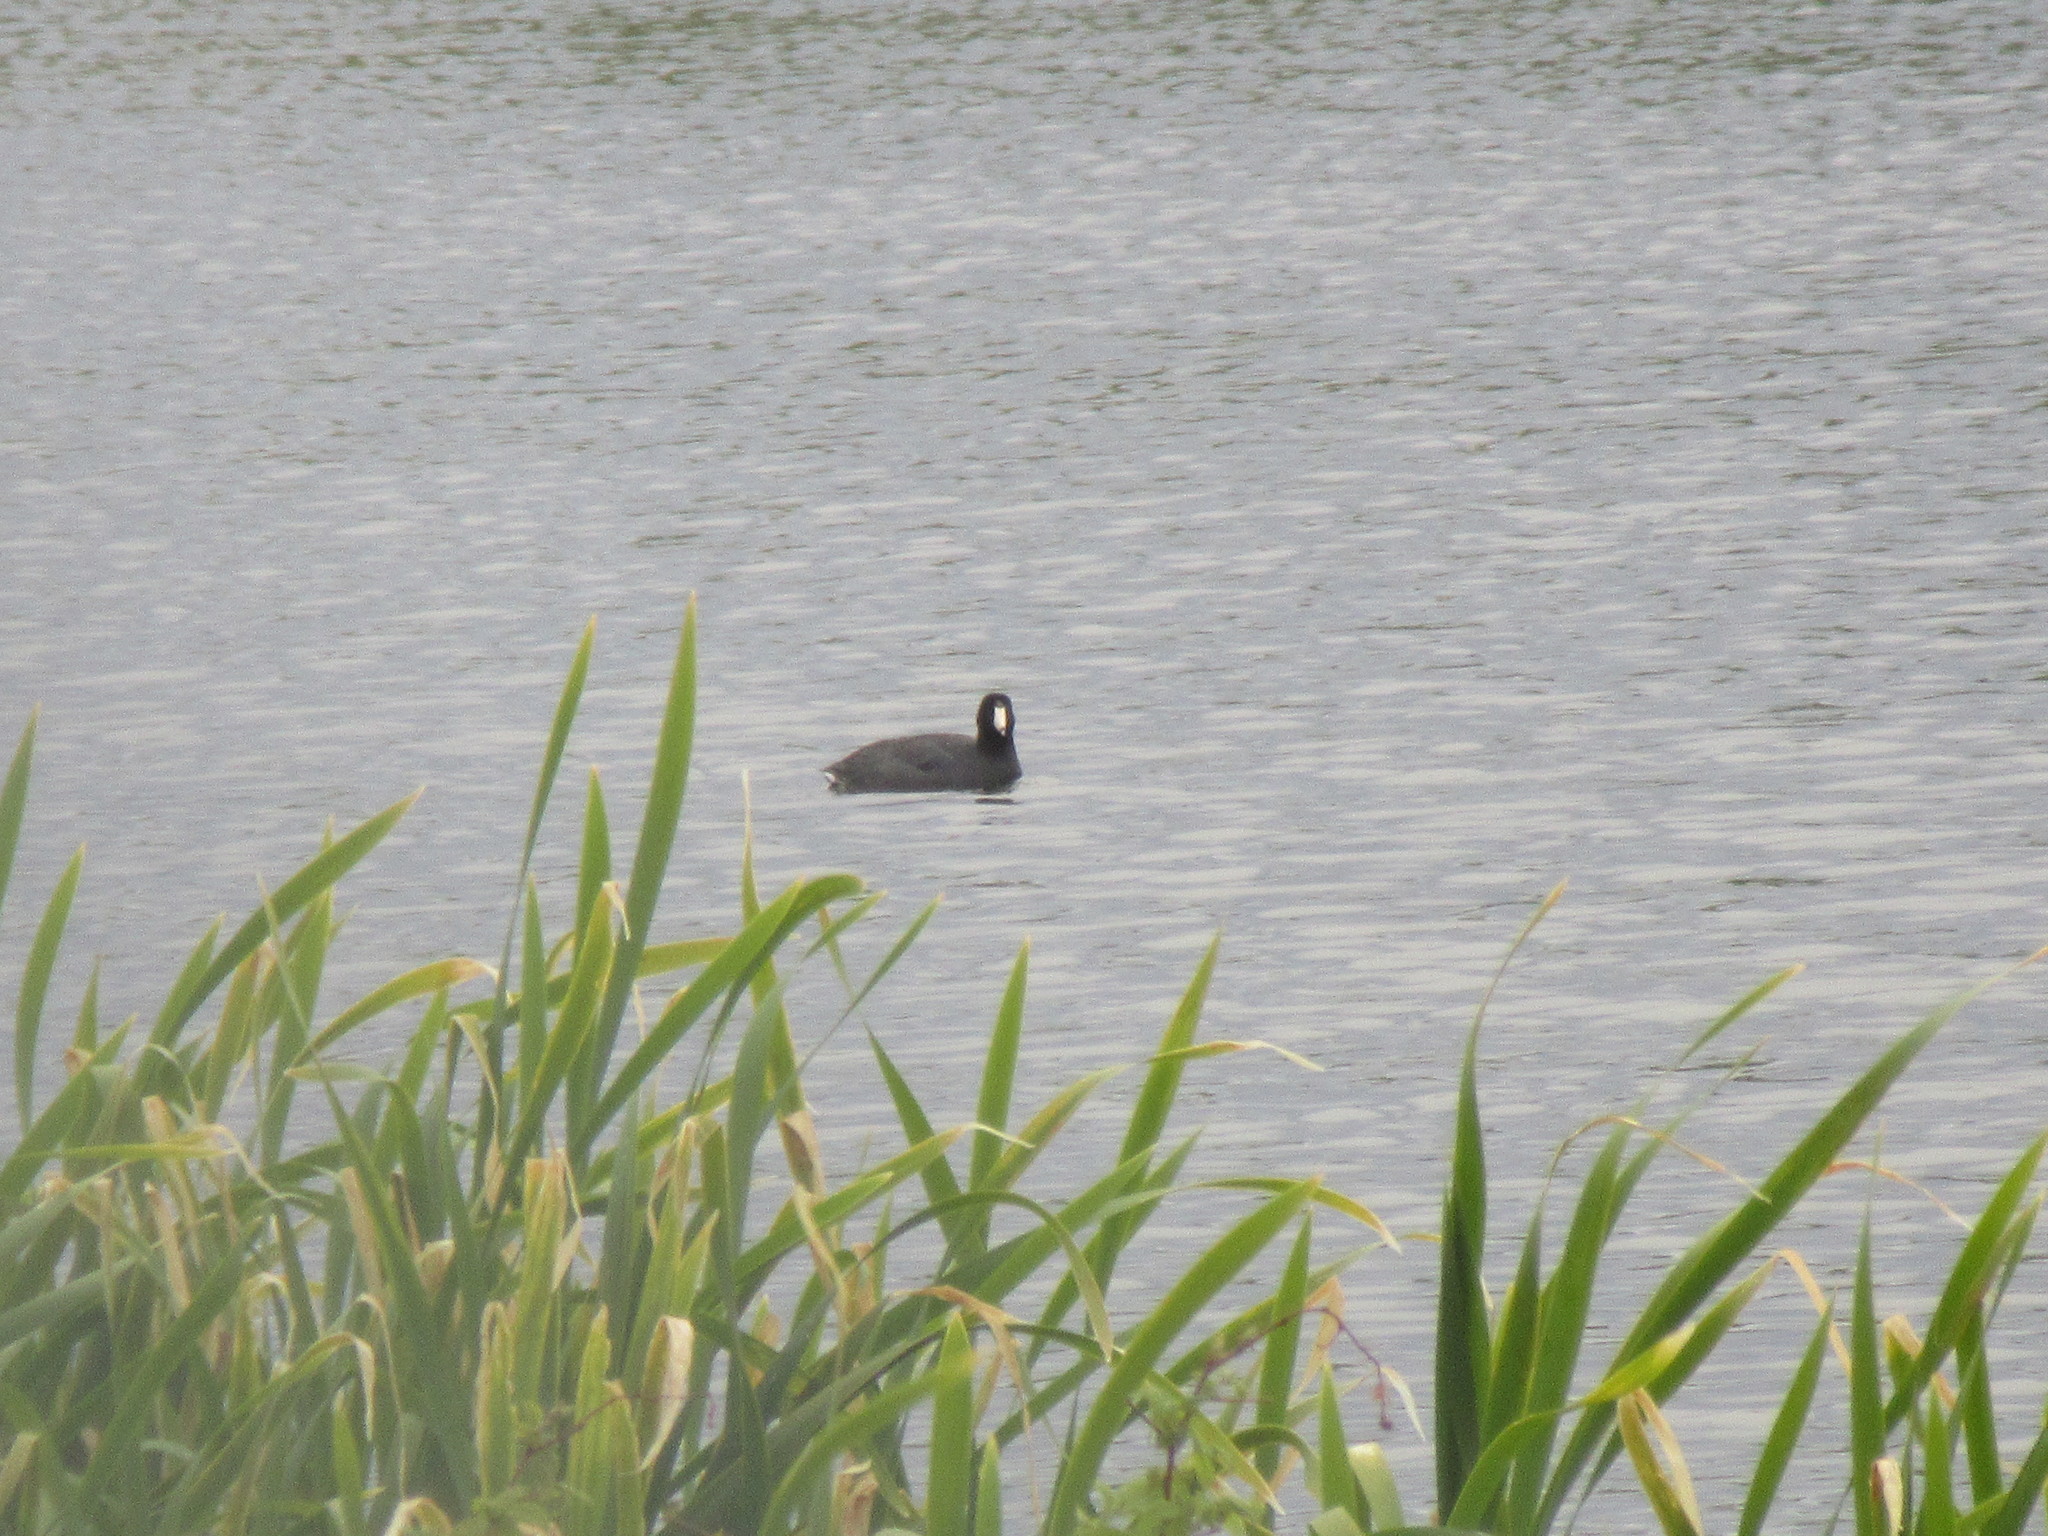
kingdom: Animalia
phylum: Chordata
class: Aves
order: Gruiformes
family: Rallidae
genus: Fulica
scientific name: Fulica americana
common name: American coot
